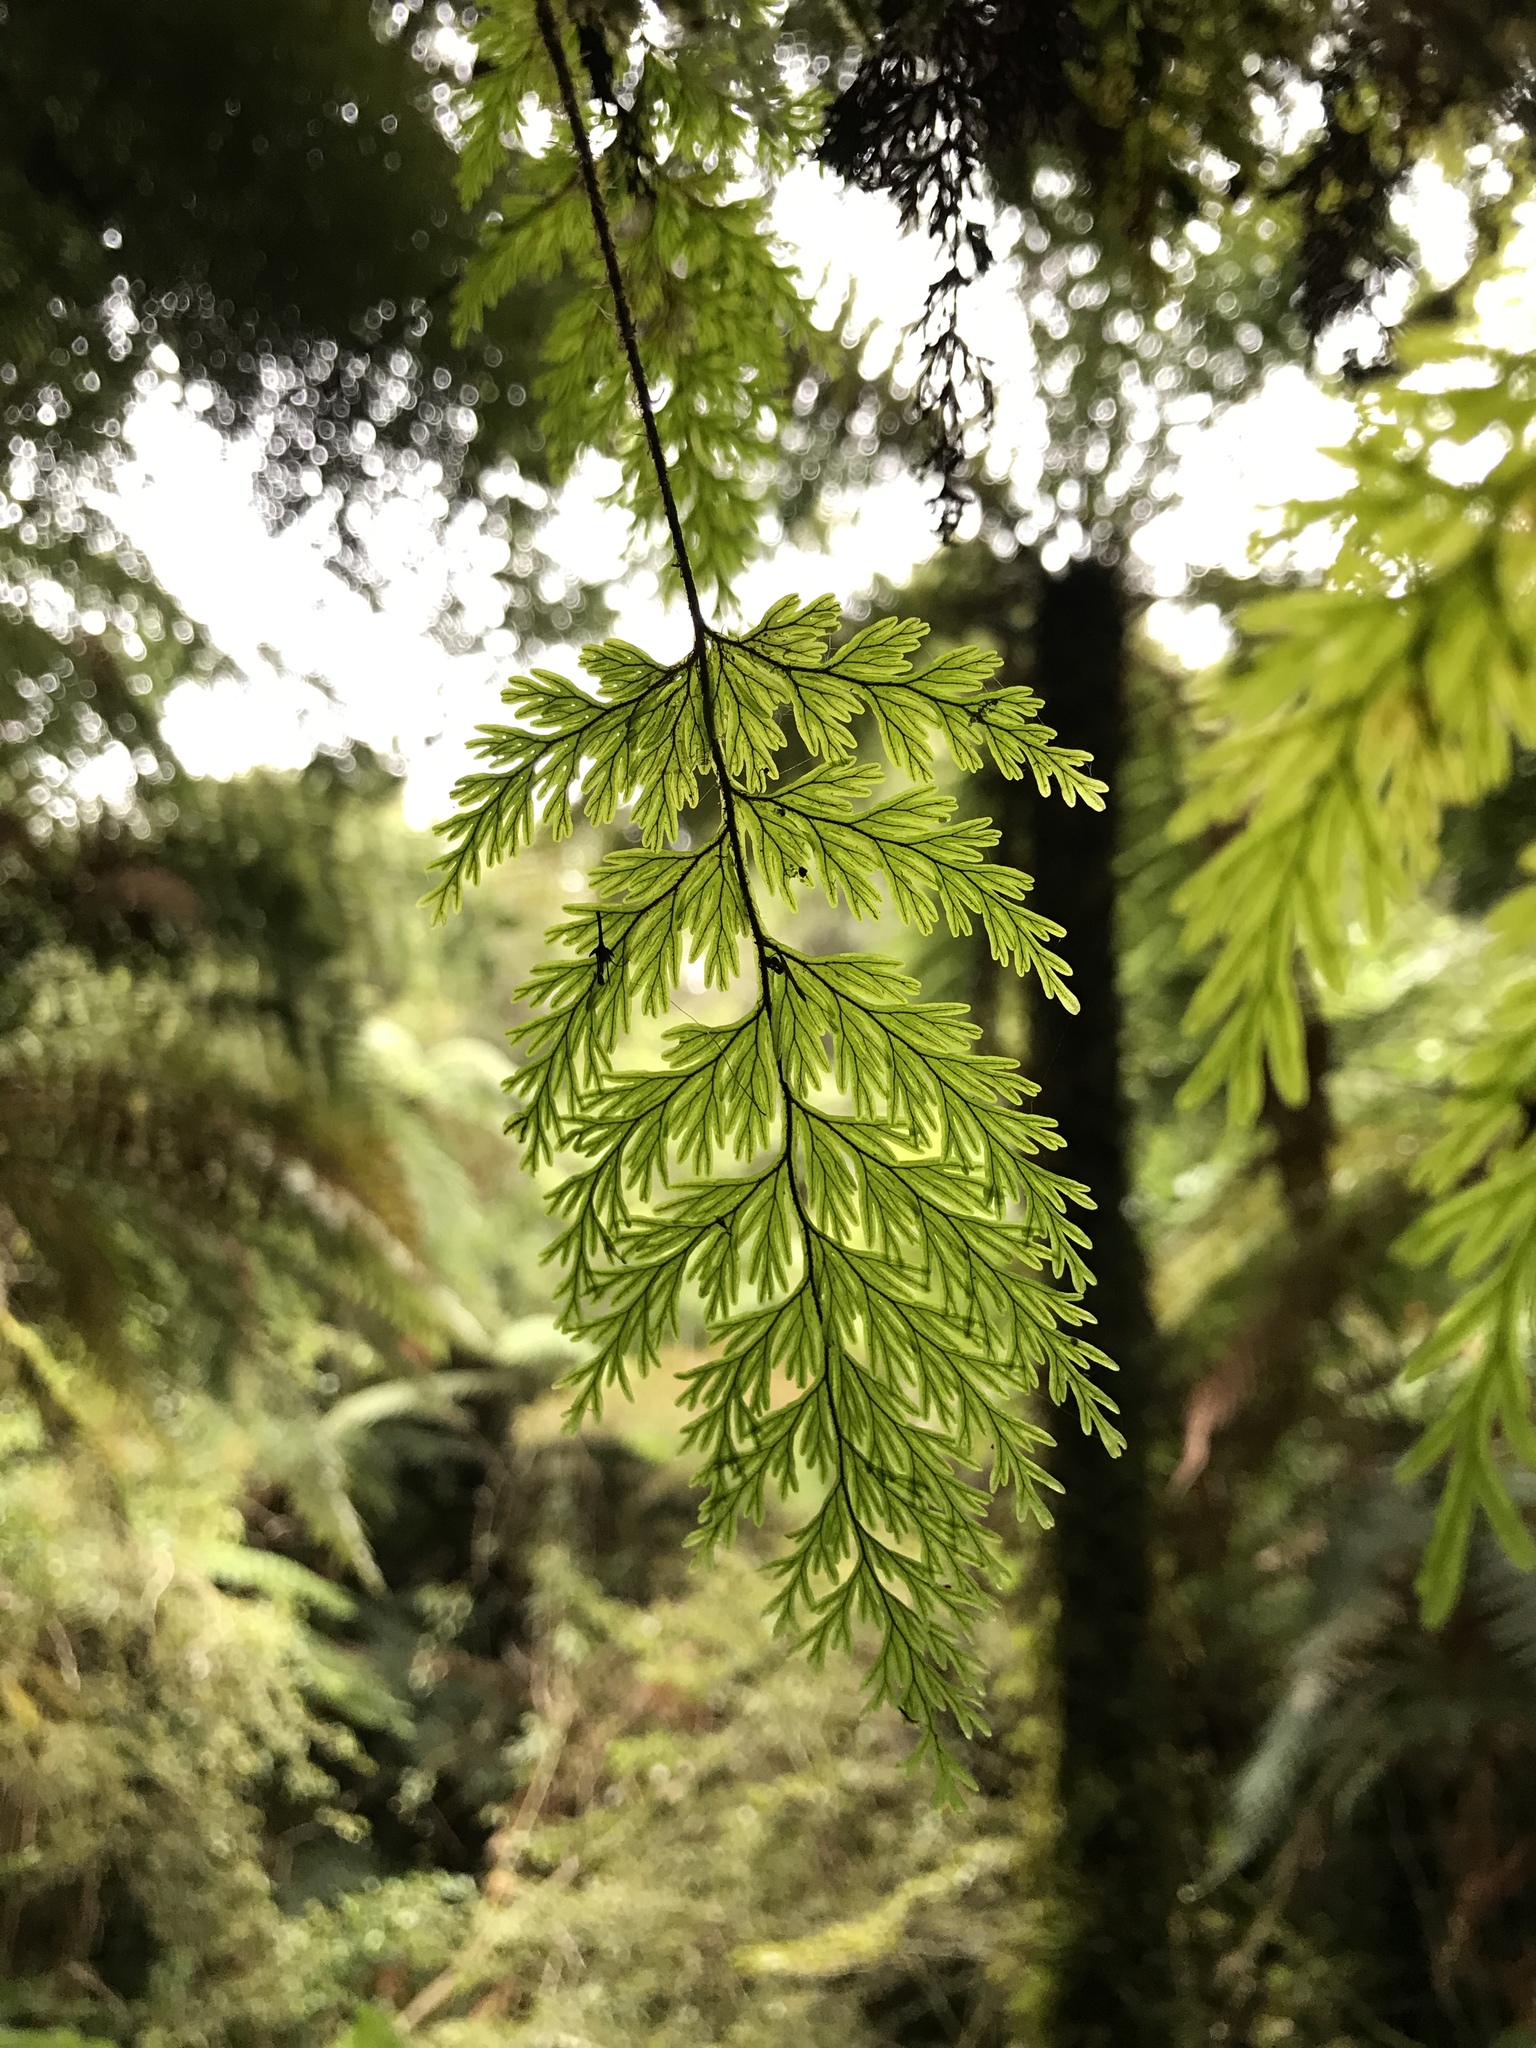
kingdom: Plantae
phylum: Tracheophyta
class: Polypodiopsida
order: Hymenophyllales
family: Hymenophyllaceae
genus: Hymenophyllum
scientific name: Hymenophyllum scabrum
